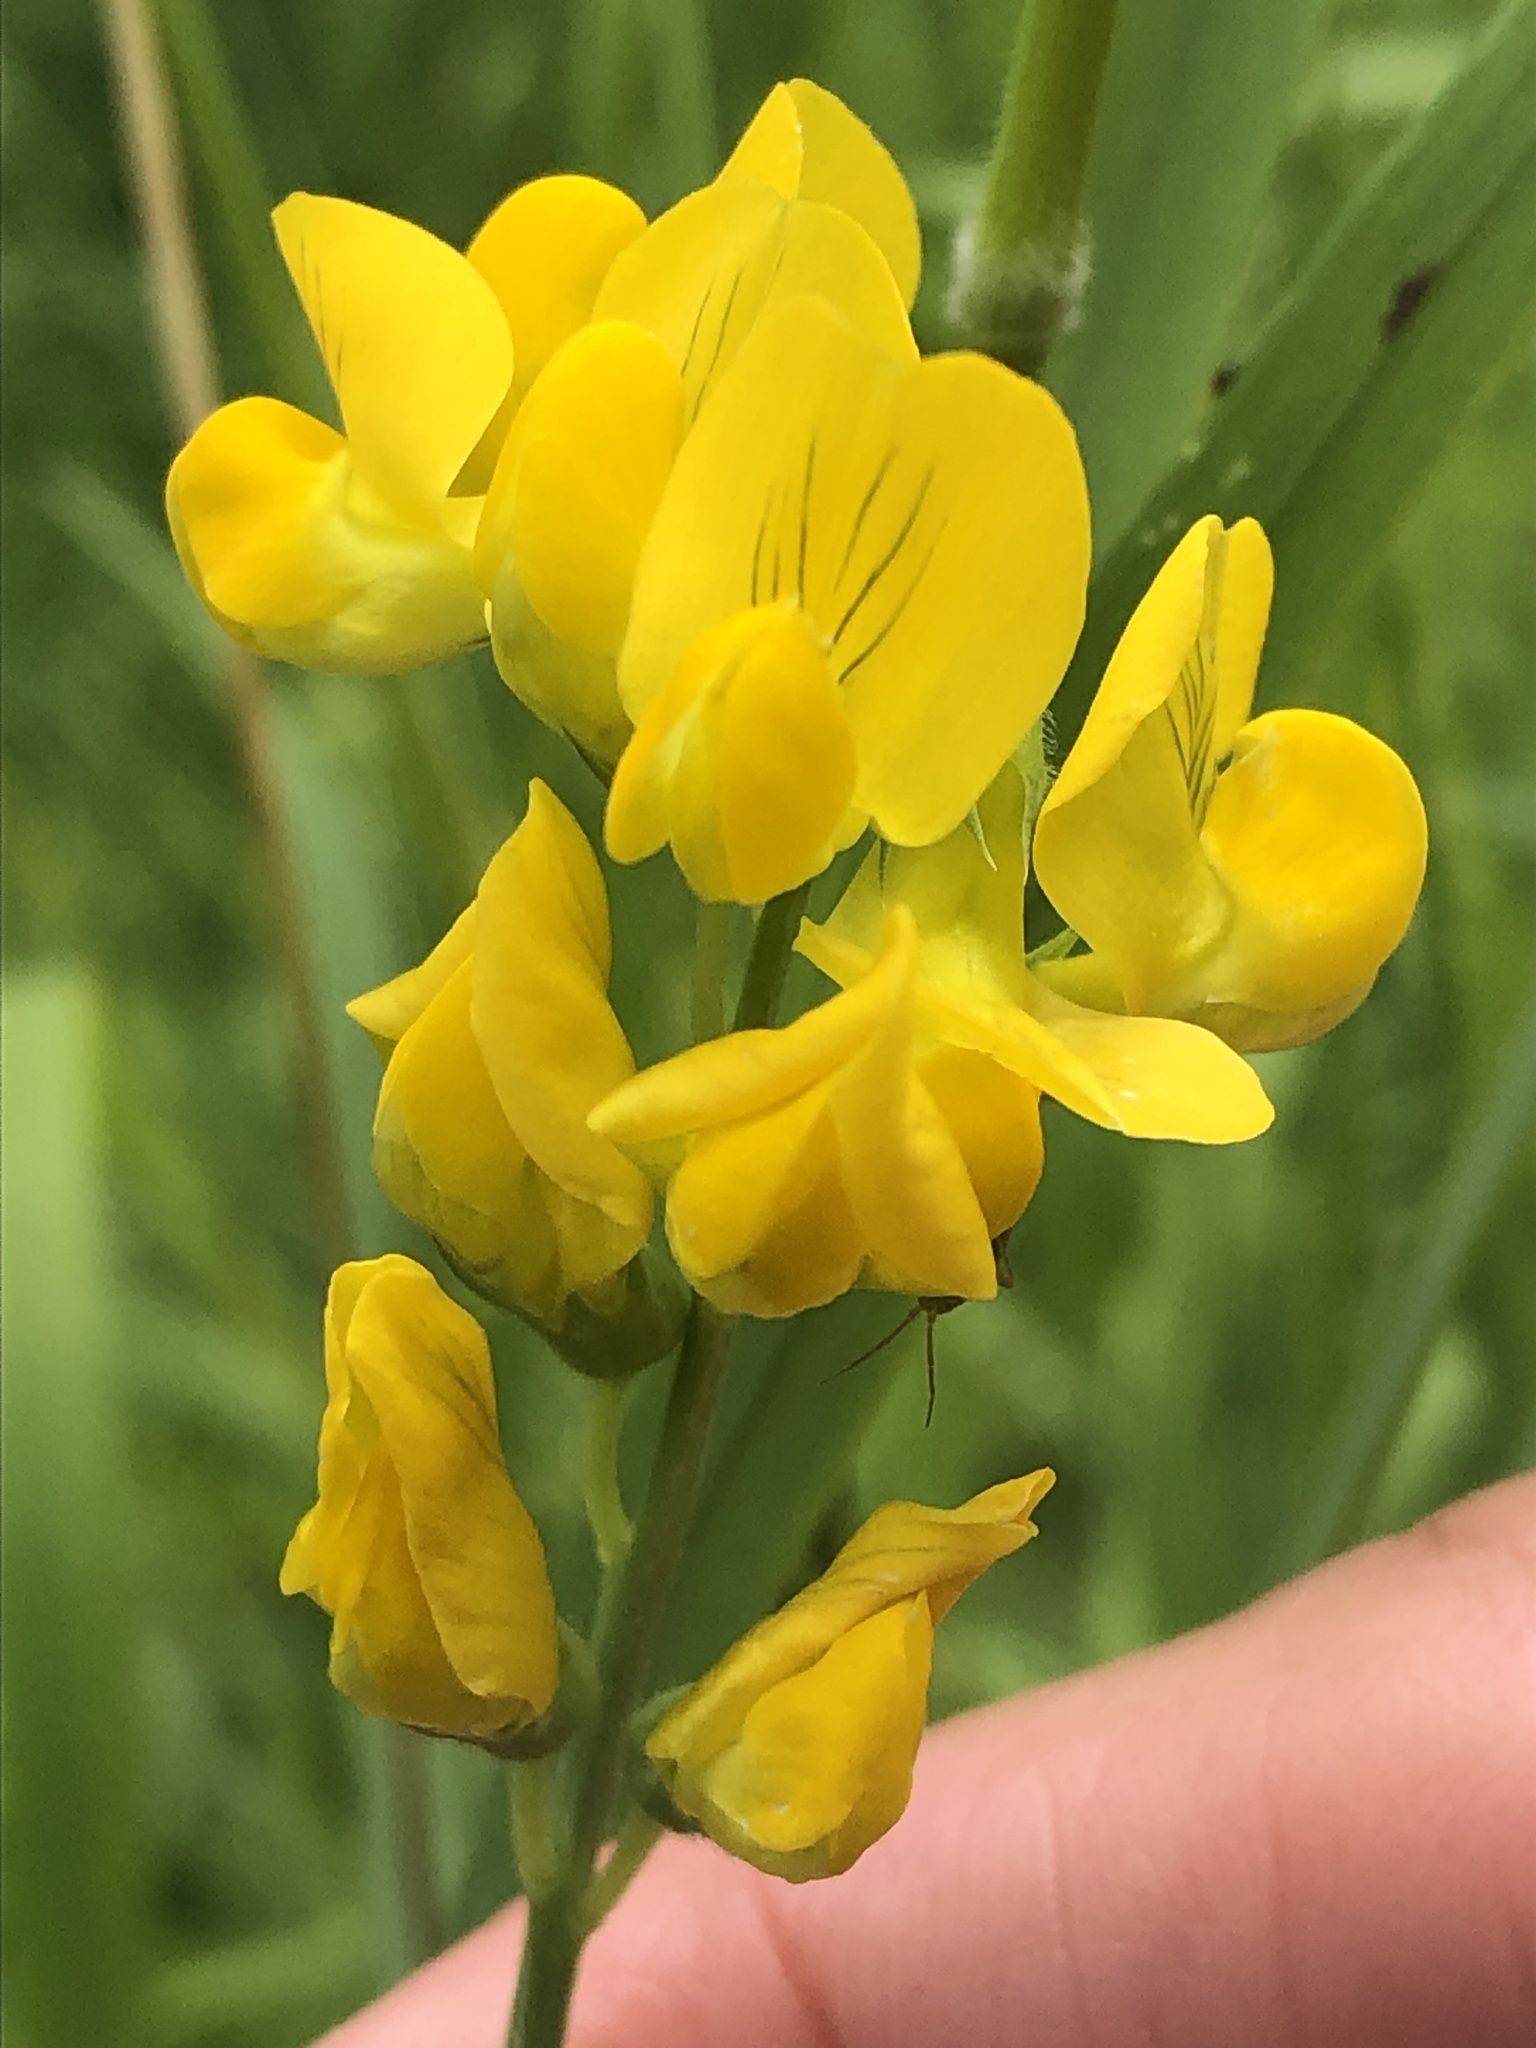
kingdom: Plantae
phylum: Tracheophyta
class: Magnoliopsida
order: Fabales
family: Fabaceae
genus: Lathyrus
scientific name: Lathyrus pratensis
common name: Meadow vetchling
